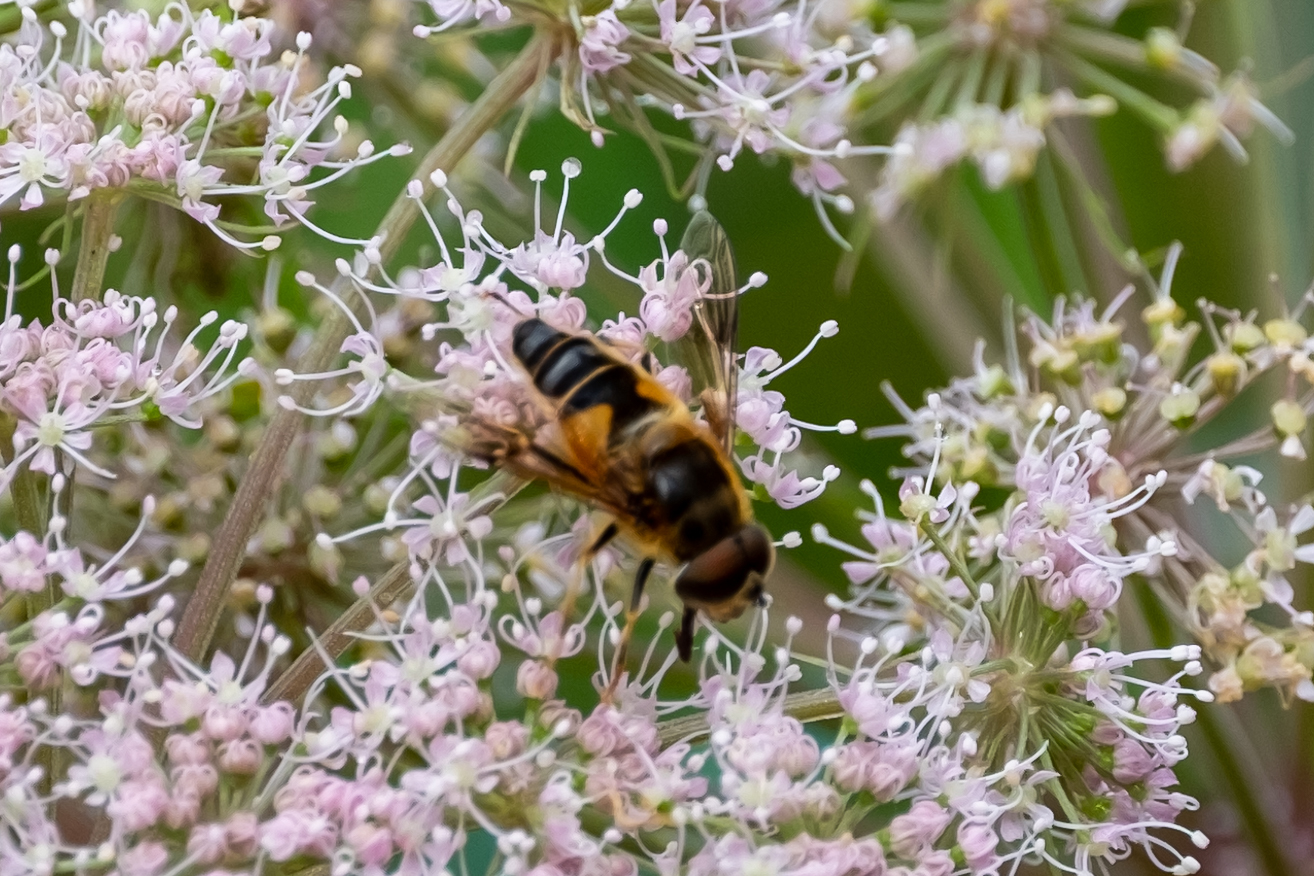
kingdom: Animalia
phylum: Arthropoda
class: Insecta
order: Diptera
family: Syrphidae
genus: Eristalis
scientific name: Eristalis pertinax
